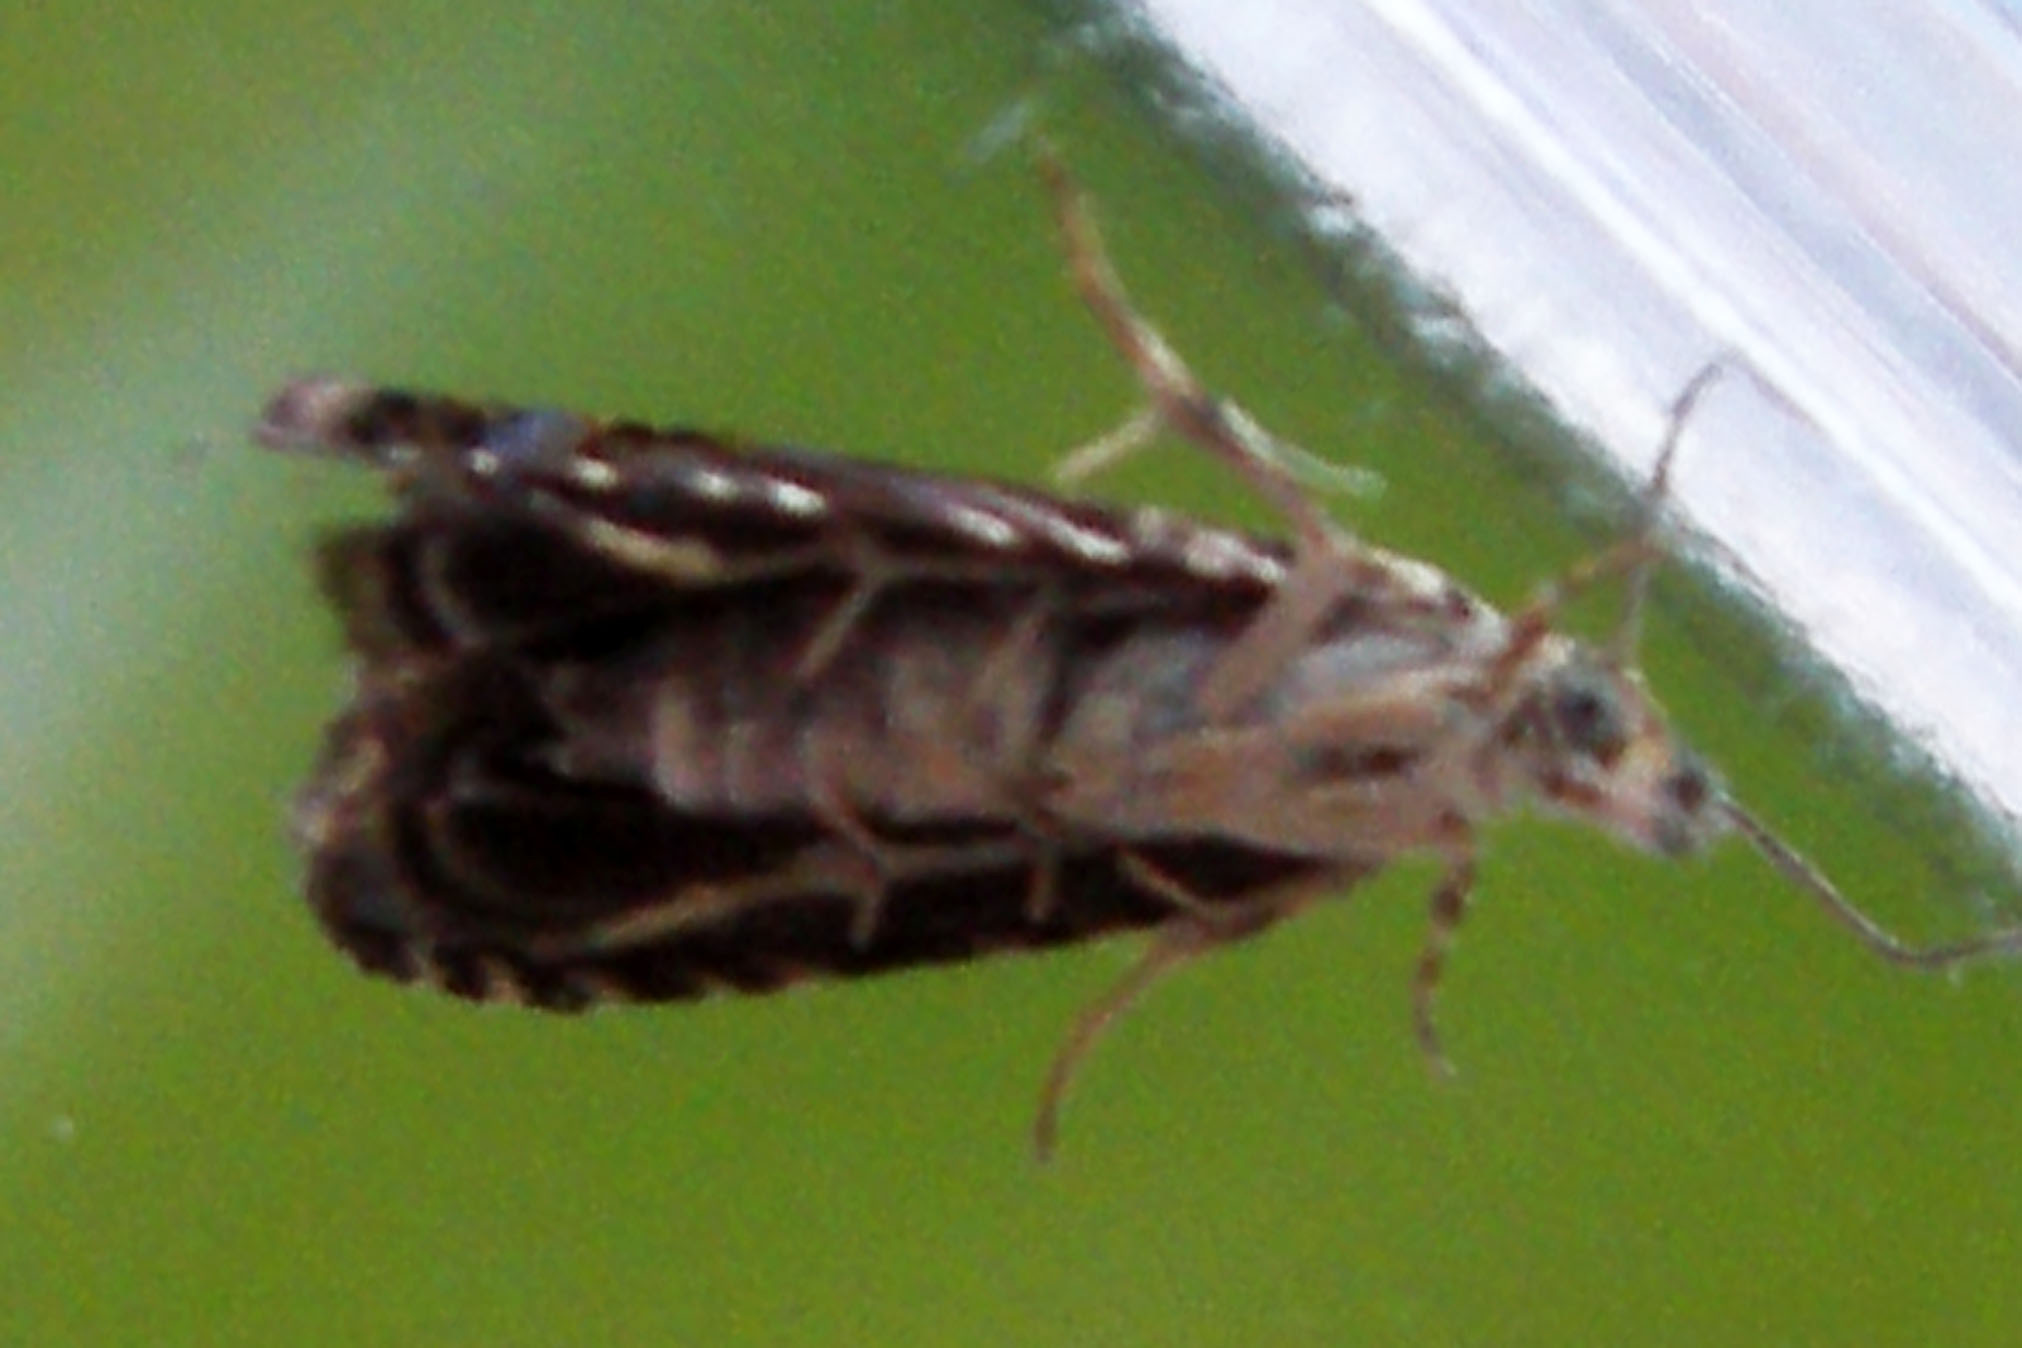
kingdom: Animalia
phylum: Arthropoda
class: Insecta
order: Lepidoptera
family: Tortricidae
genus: Dichrorampha
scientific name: Dichrorampha incanana
